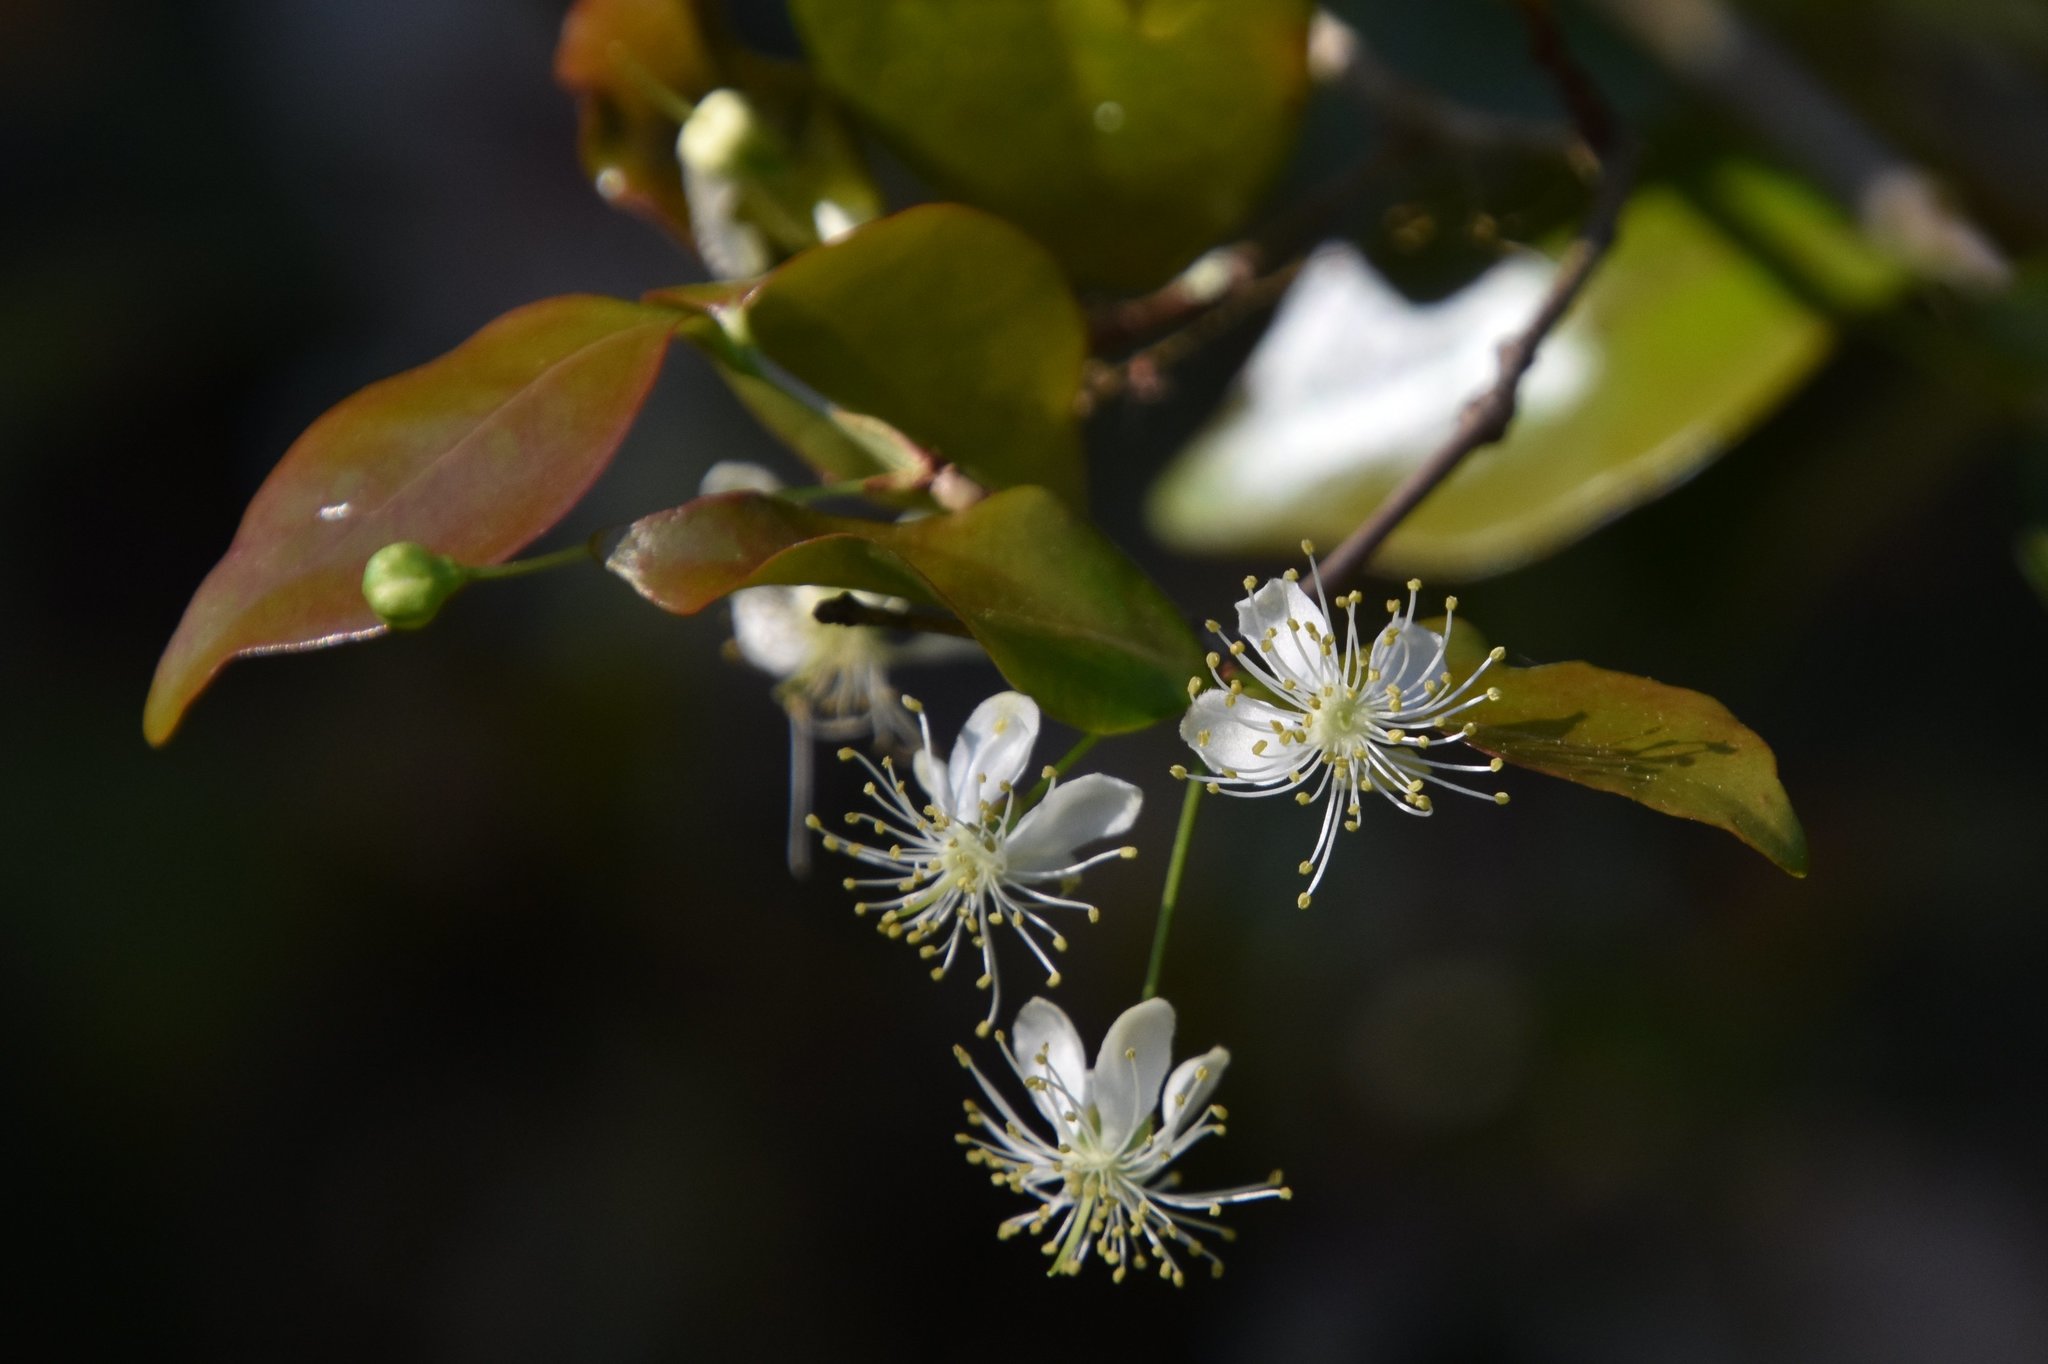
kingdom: Plantae
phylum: Tracheophyta
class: Magnoliopsida
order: Myrtales
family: Myrtaceae
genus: Eugenia
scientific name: Eugenia uniflora
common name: Surinam cherry
